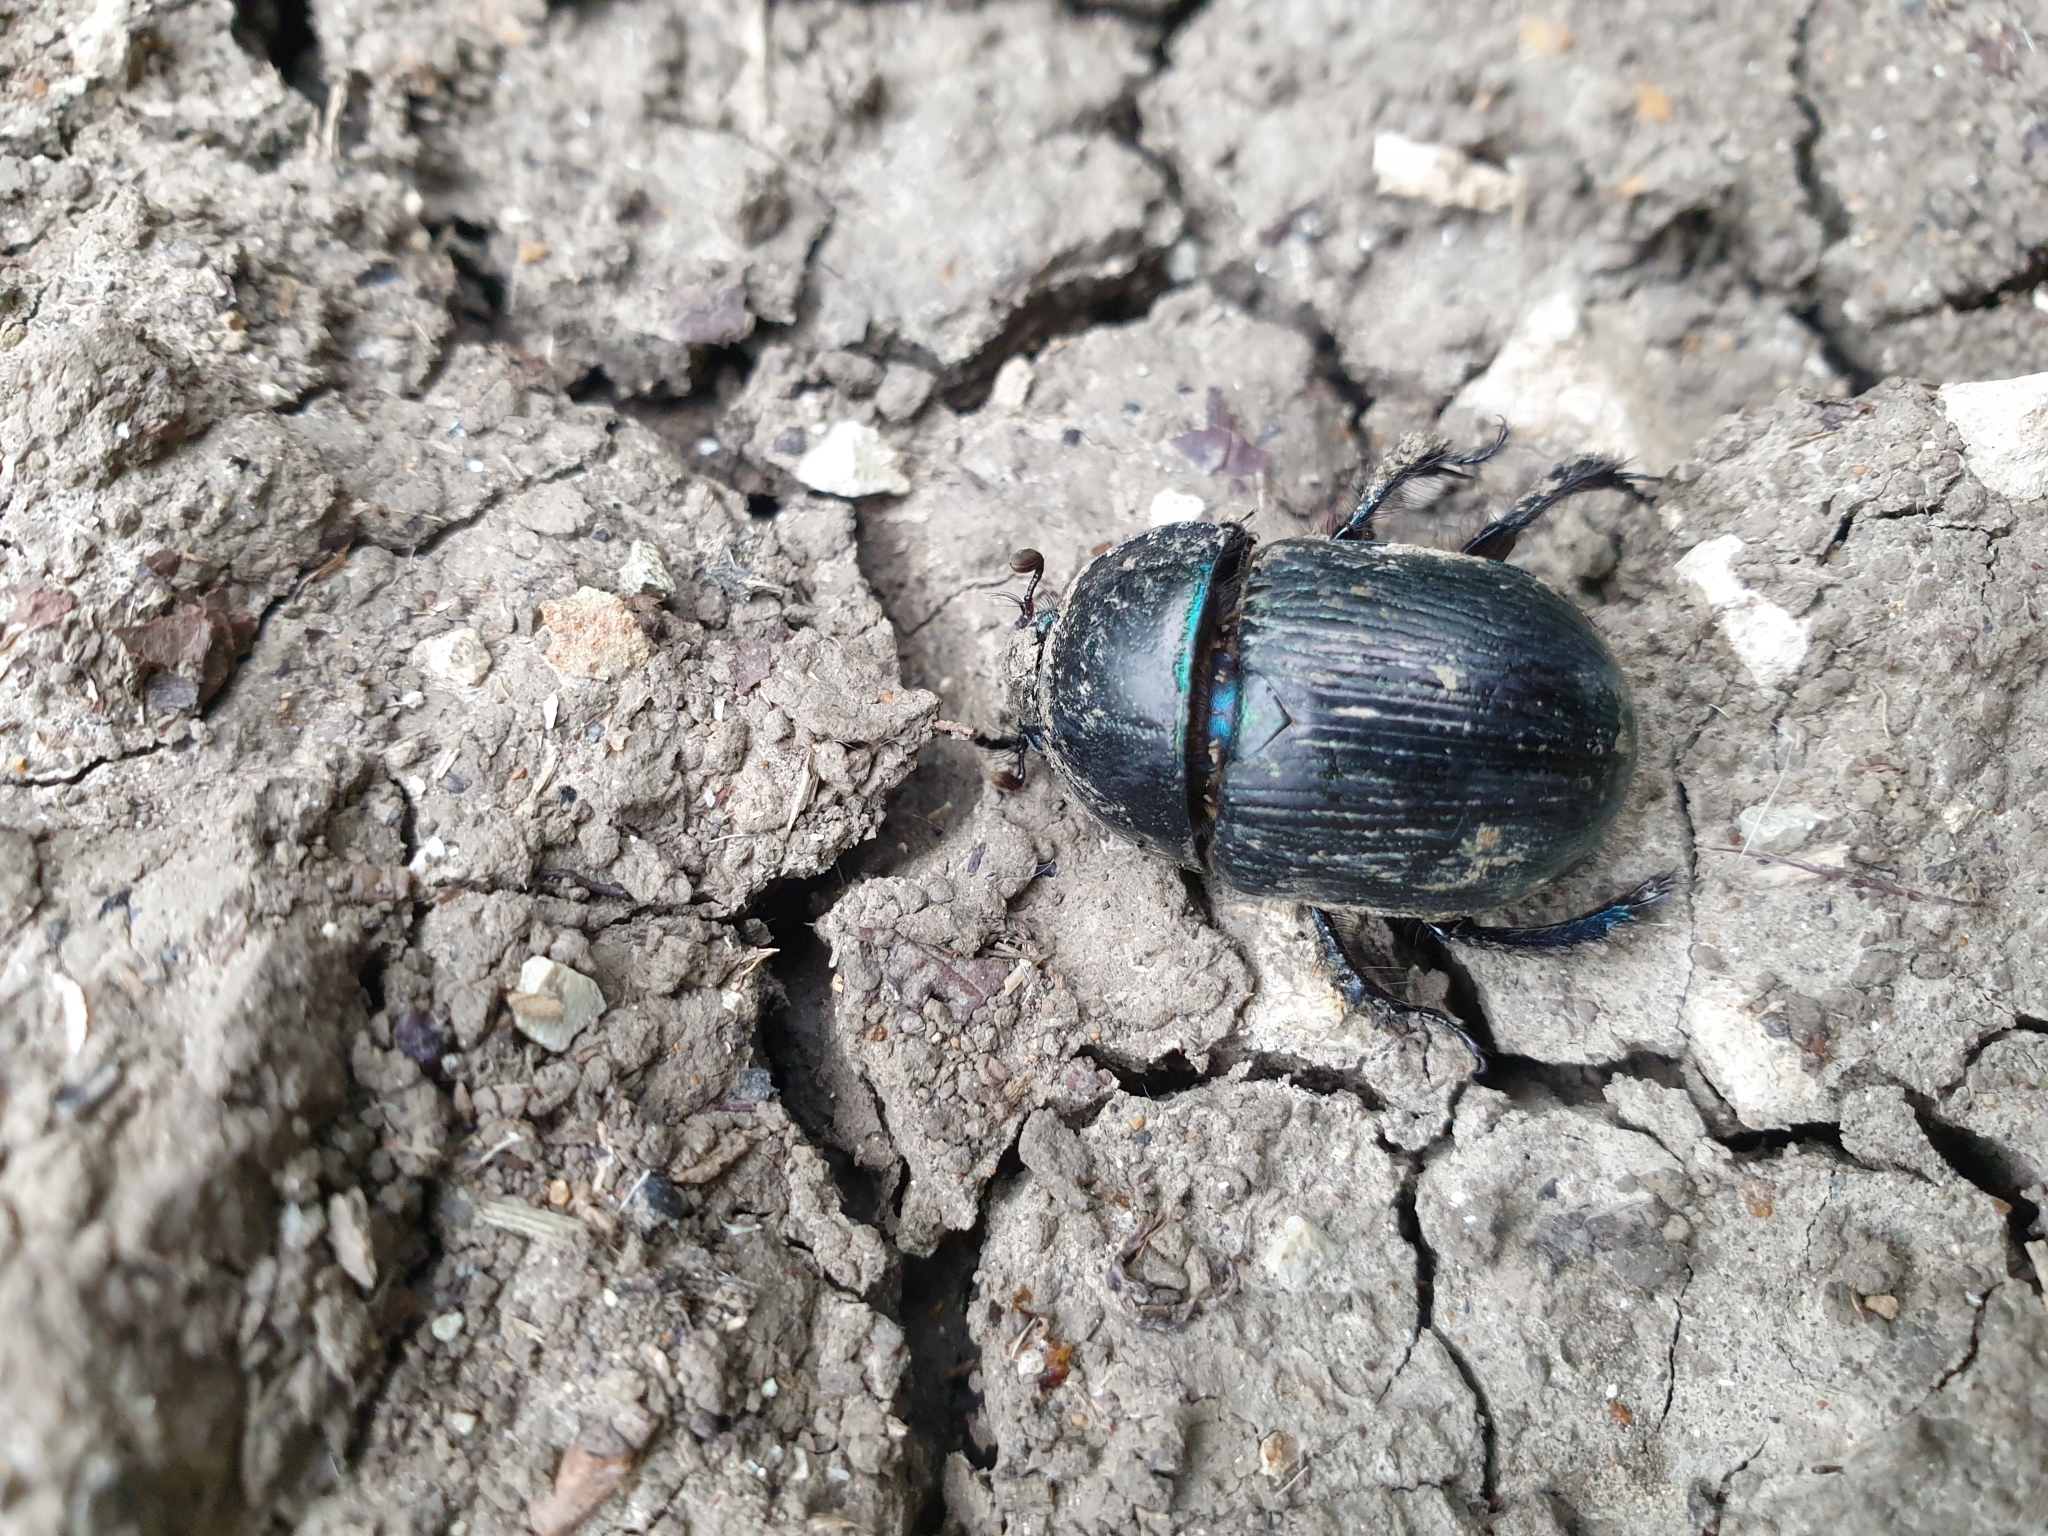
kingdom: Animalia
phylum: Arthropoda
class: Insecta
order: Coleoptera
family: Geotrupidae
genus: Geotrupes
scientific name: Geotrupes mutator
